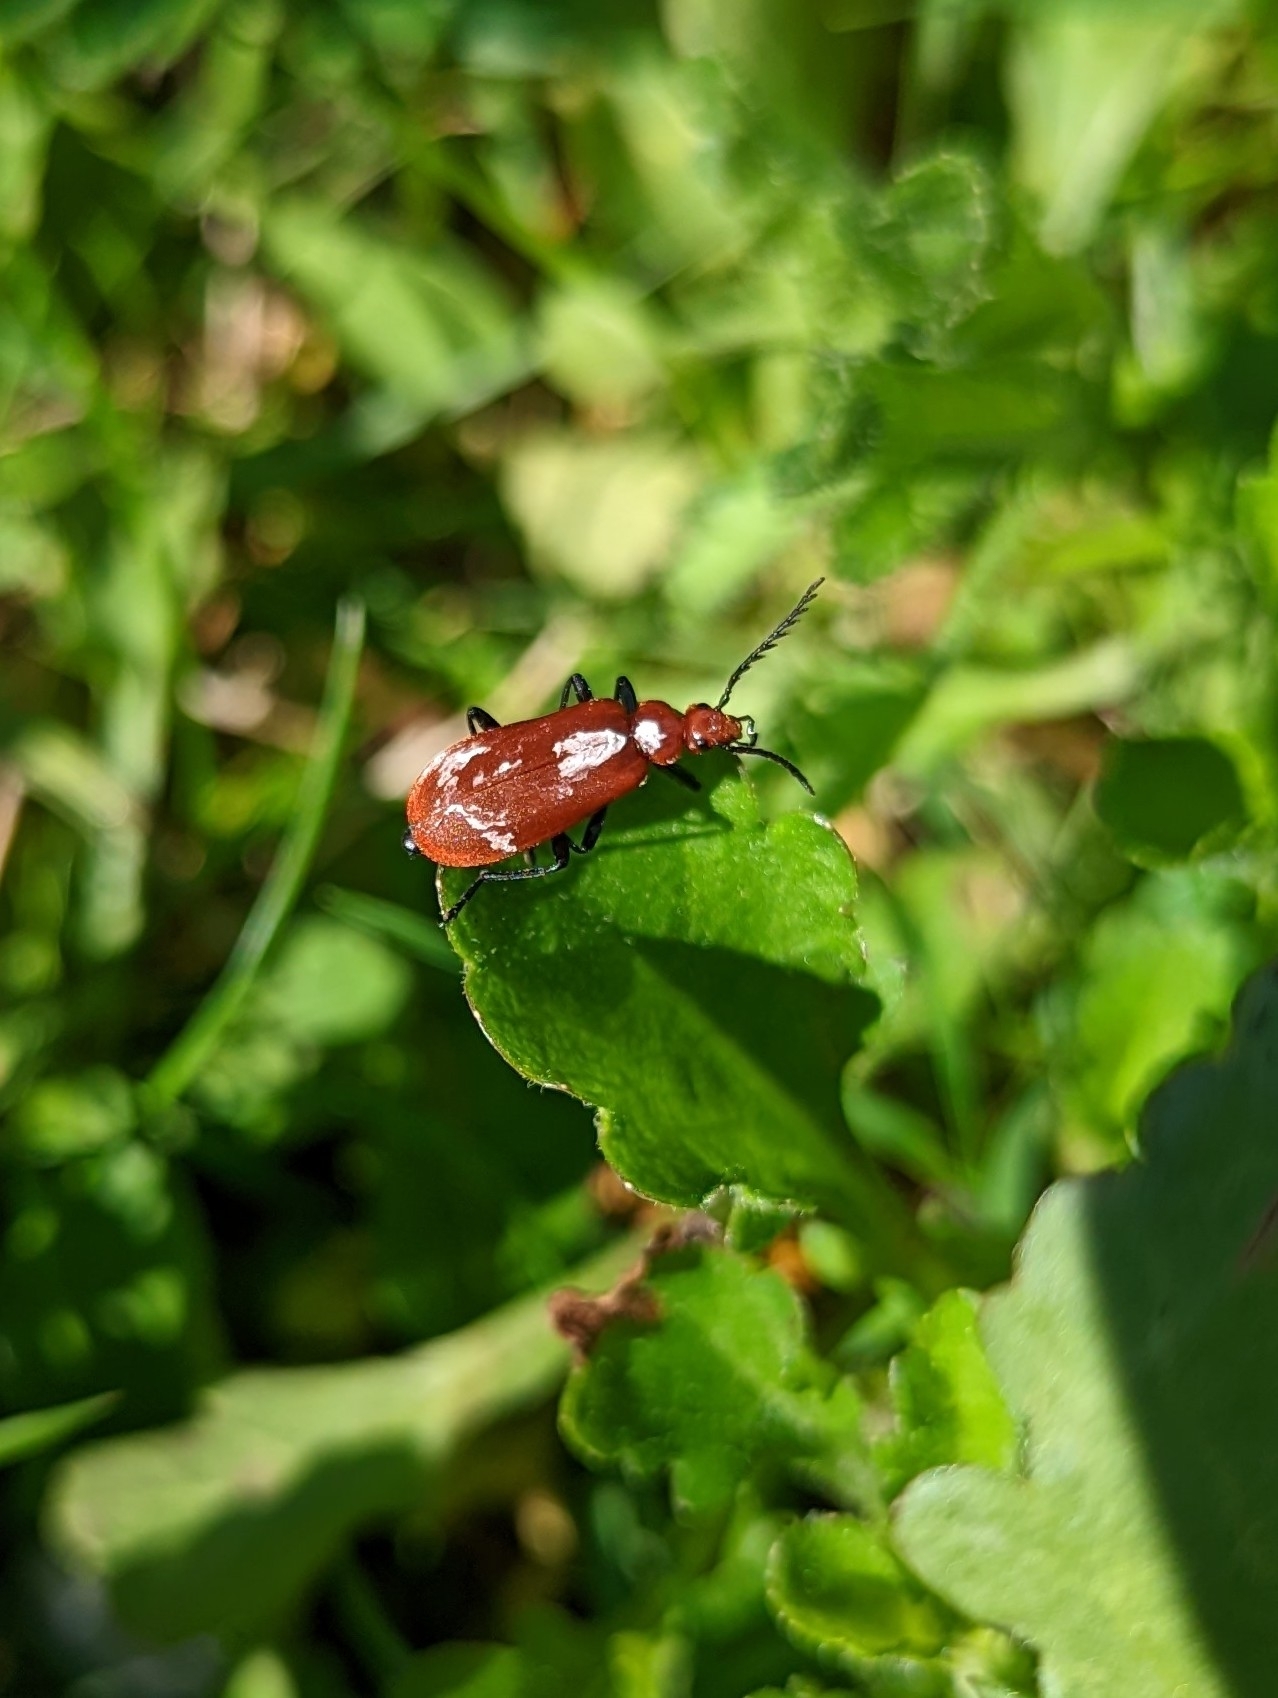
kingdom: Animalia
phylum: Arthropoda
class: Insecta
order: Coleoptera
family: Pyrochroidae
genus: Pyrochroa
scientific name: Pyrochroa serraticornis
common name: Red-headed cardinal beetle
